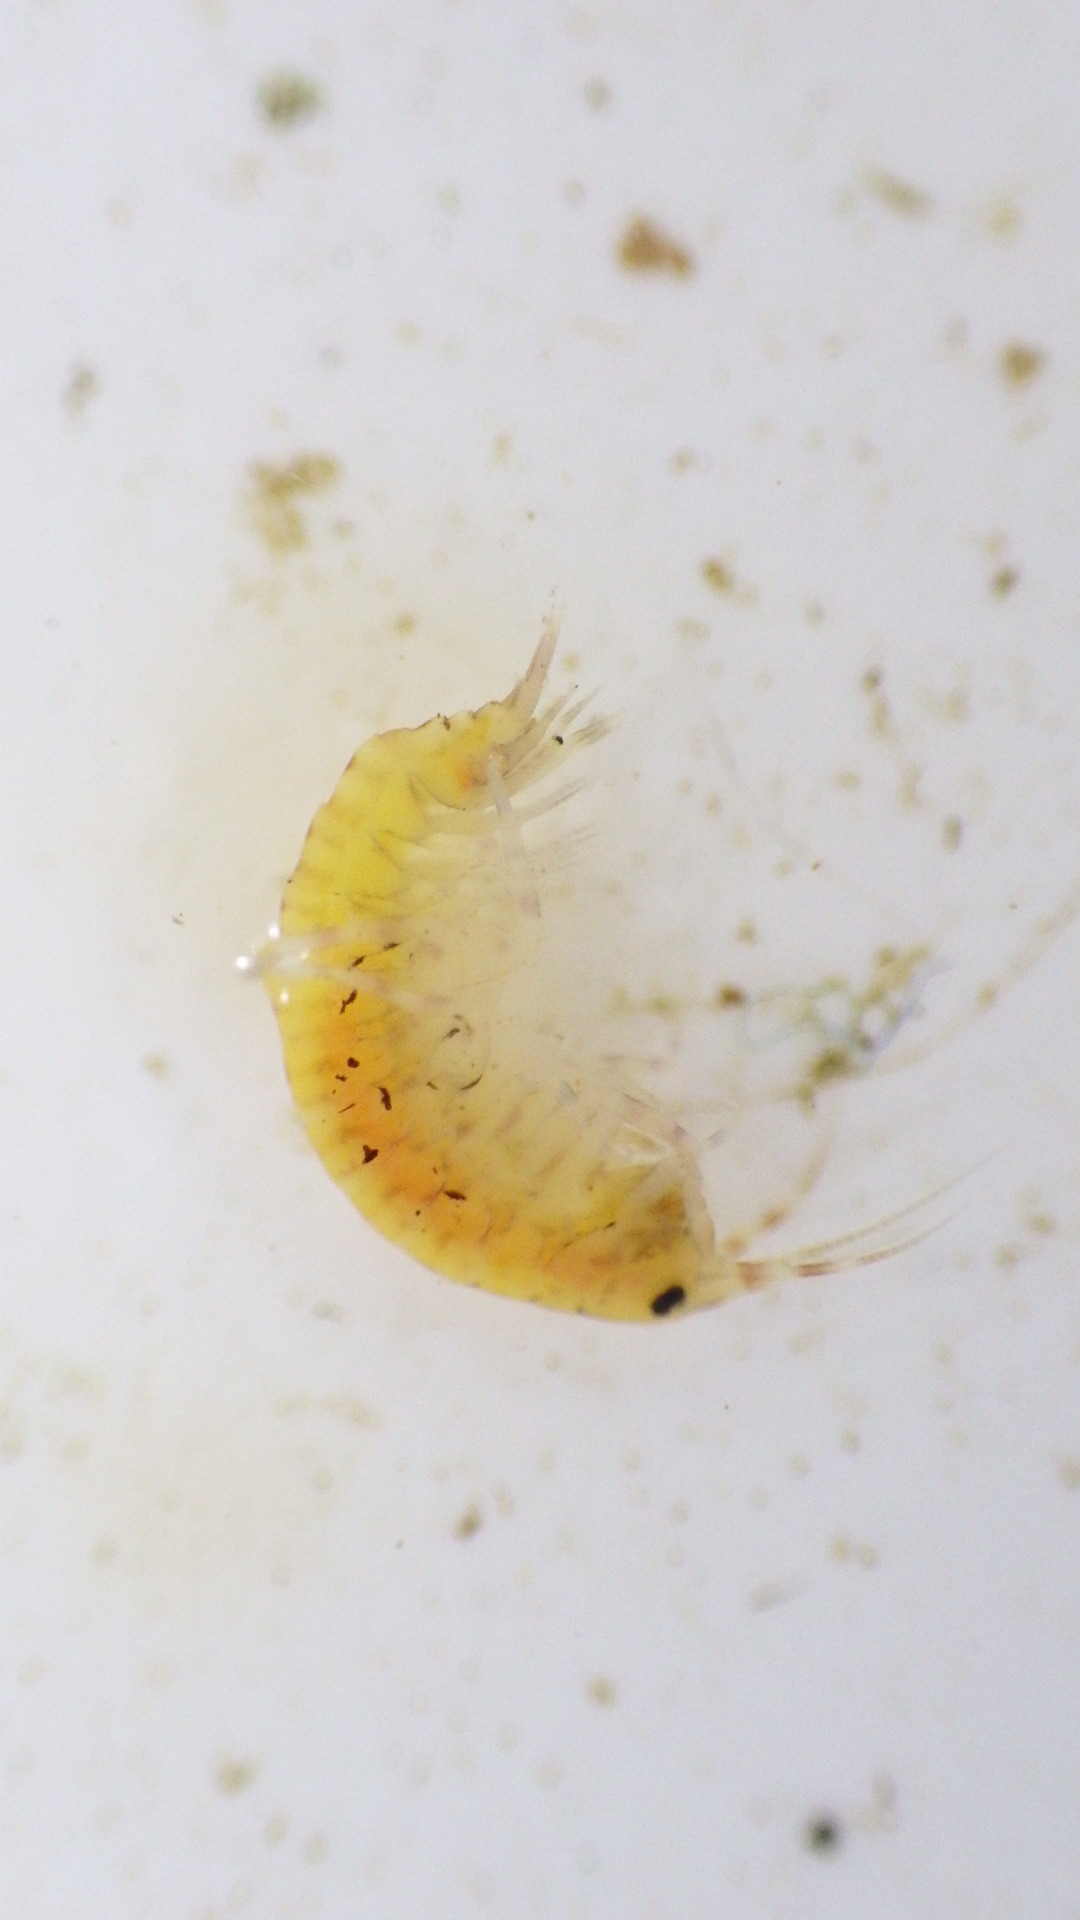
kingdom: Animalia
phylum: Arthropoda
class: Malacostraca
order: Amphipoda
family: Gammaridae
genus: Gammarus
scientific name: Gammarus fasciatus
